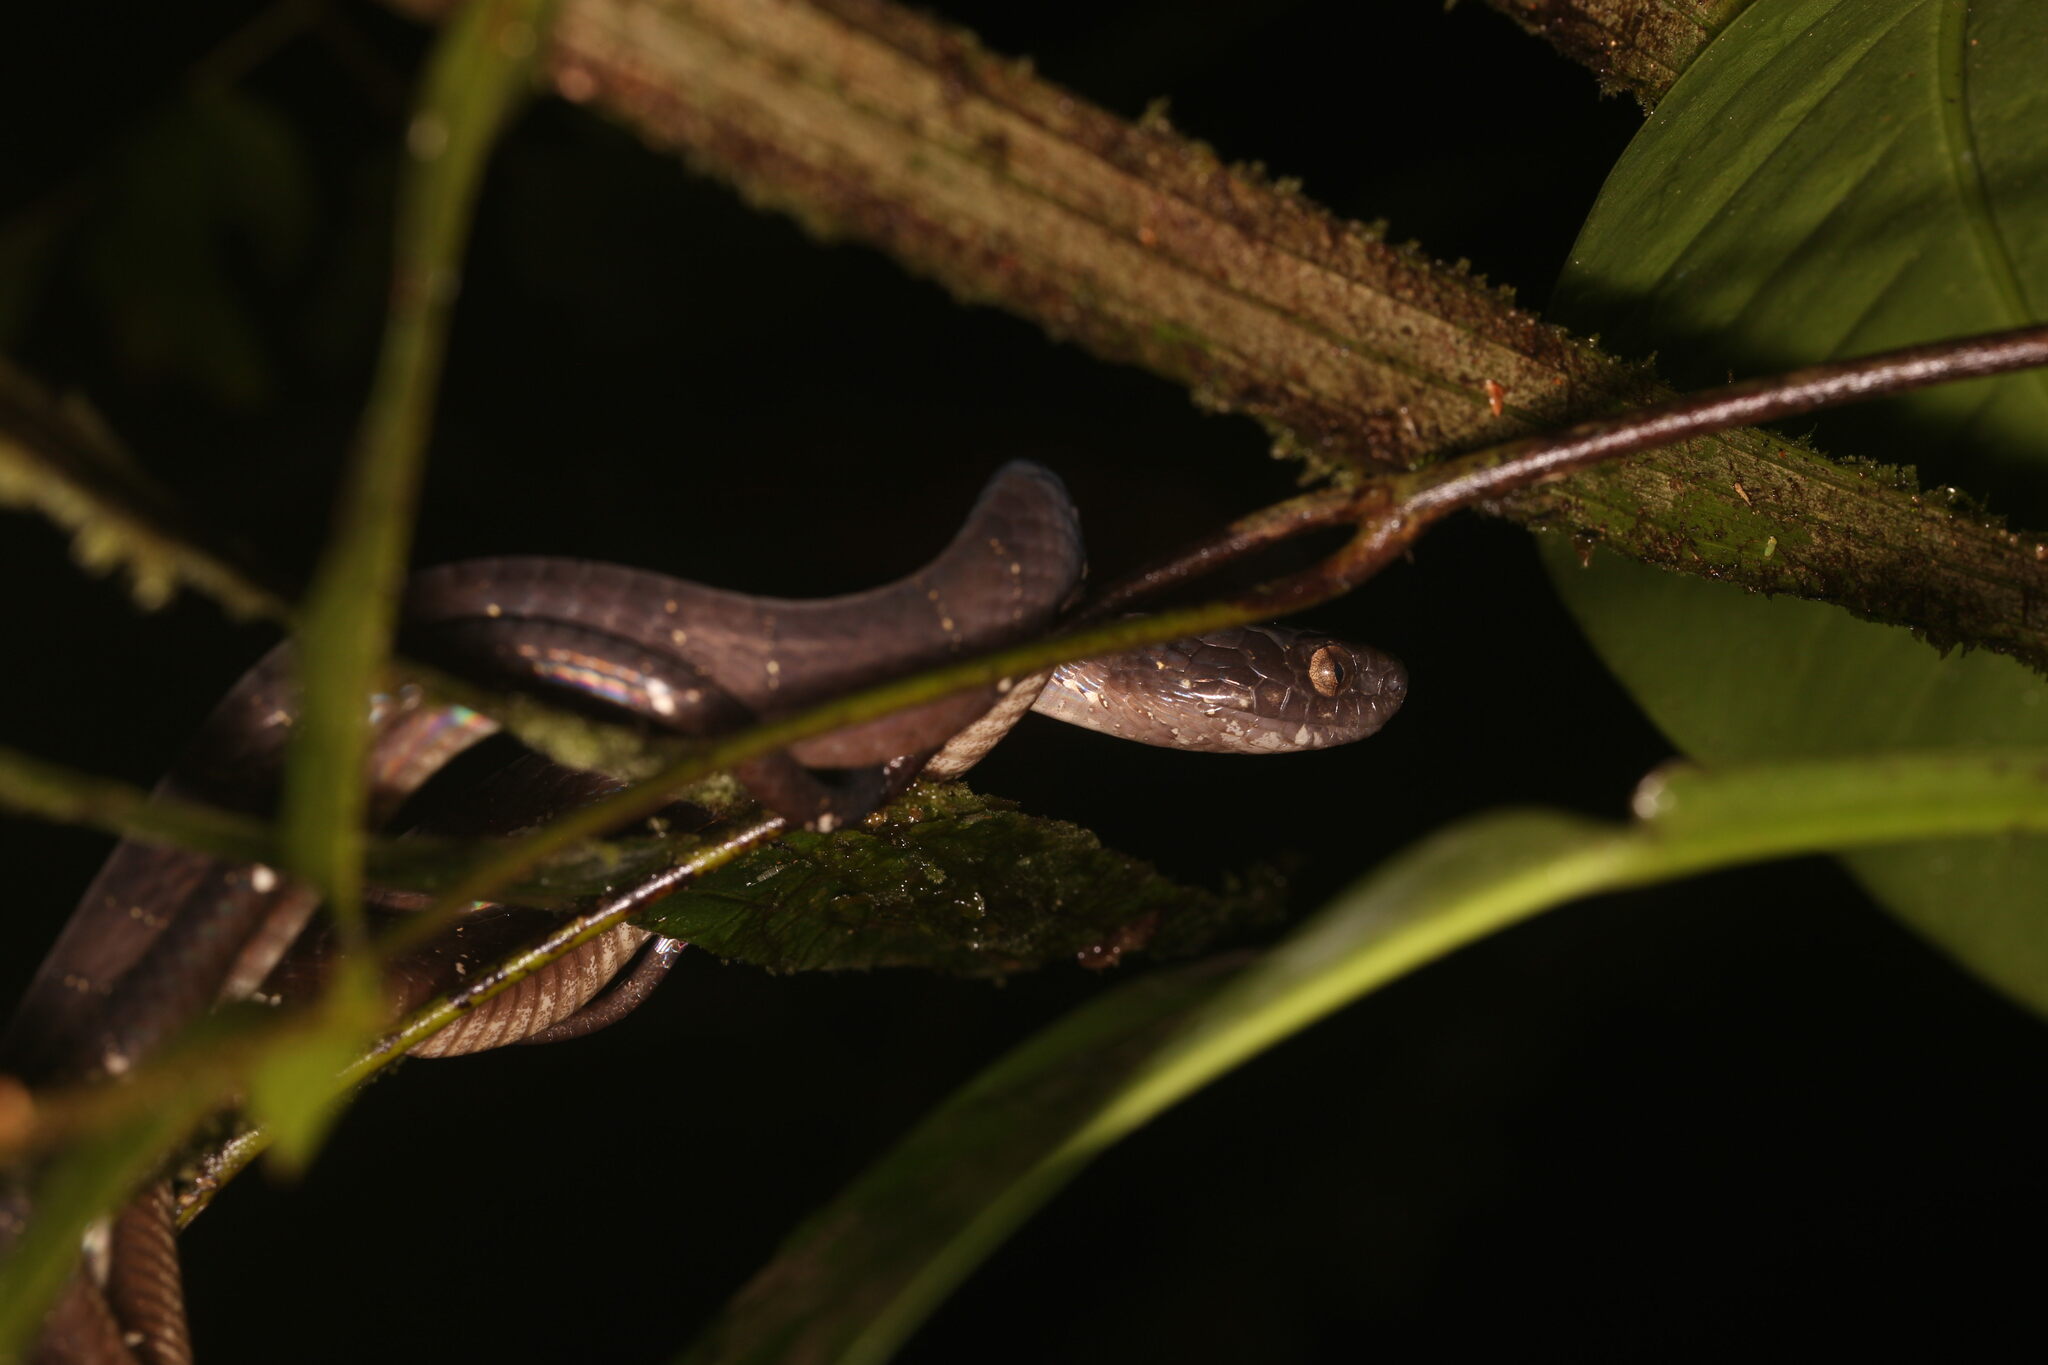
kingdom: Animalia
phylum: Chordata
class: Squamata
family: Colubridae
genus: Dipsas
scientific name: Dipsas indica
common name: Neotropical snail-eater
